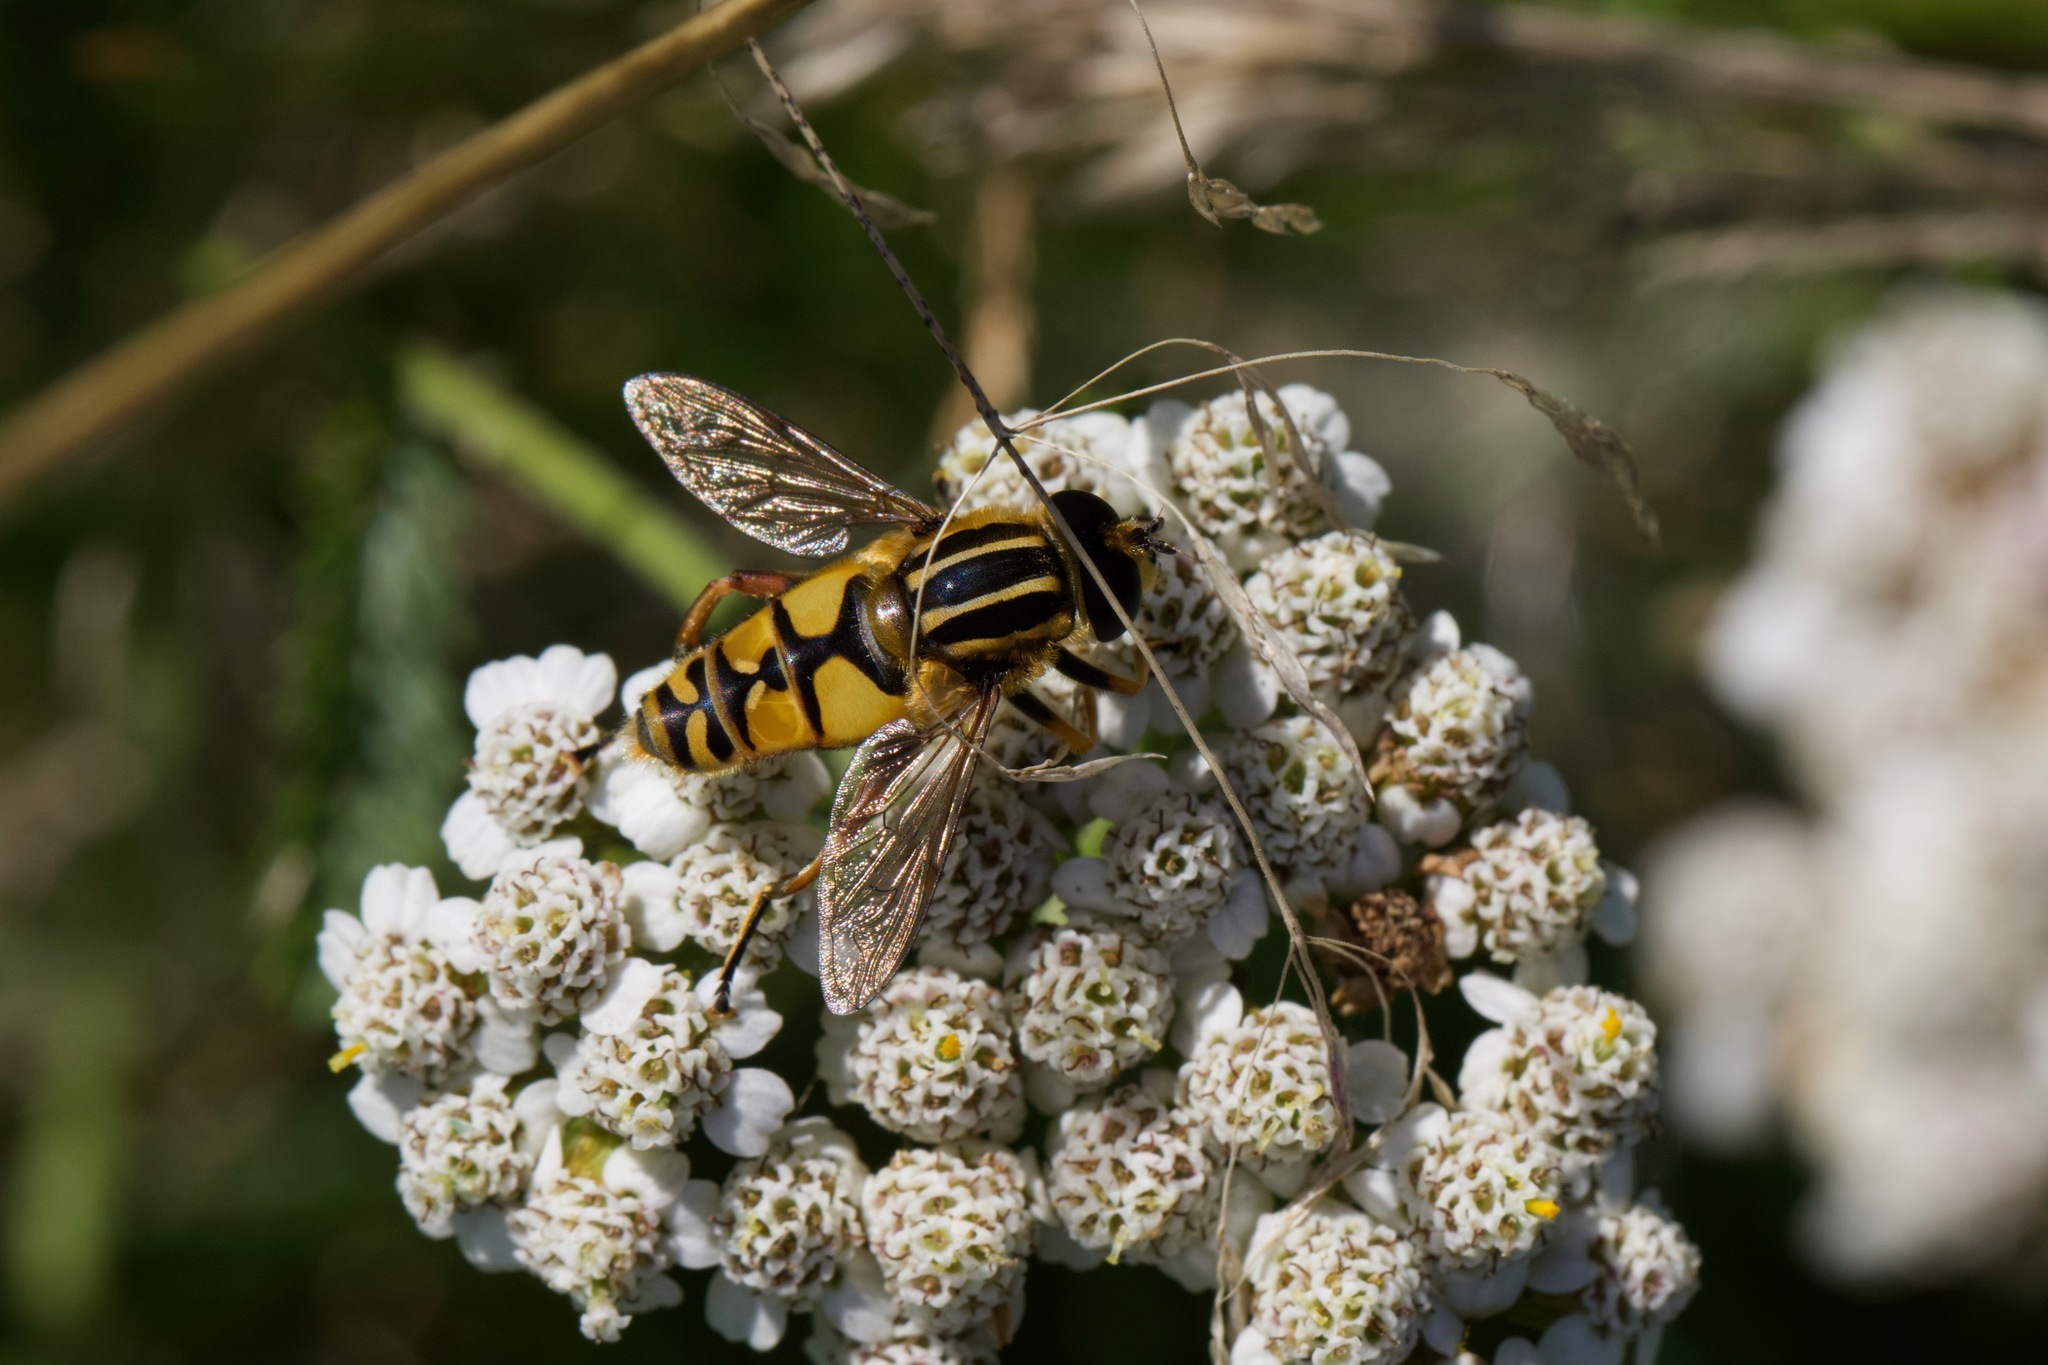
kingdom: Animalia
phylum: Arthropoda
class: Insecta
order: Diptera
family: Syrphidae
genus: Helophilus
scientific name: Helophilus pendulus
